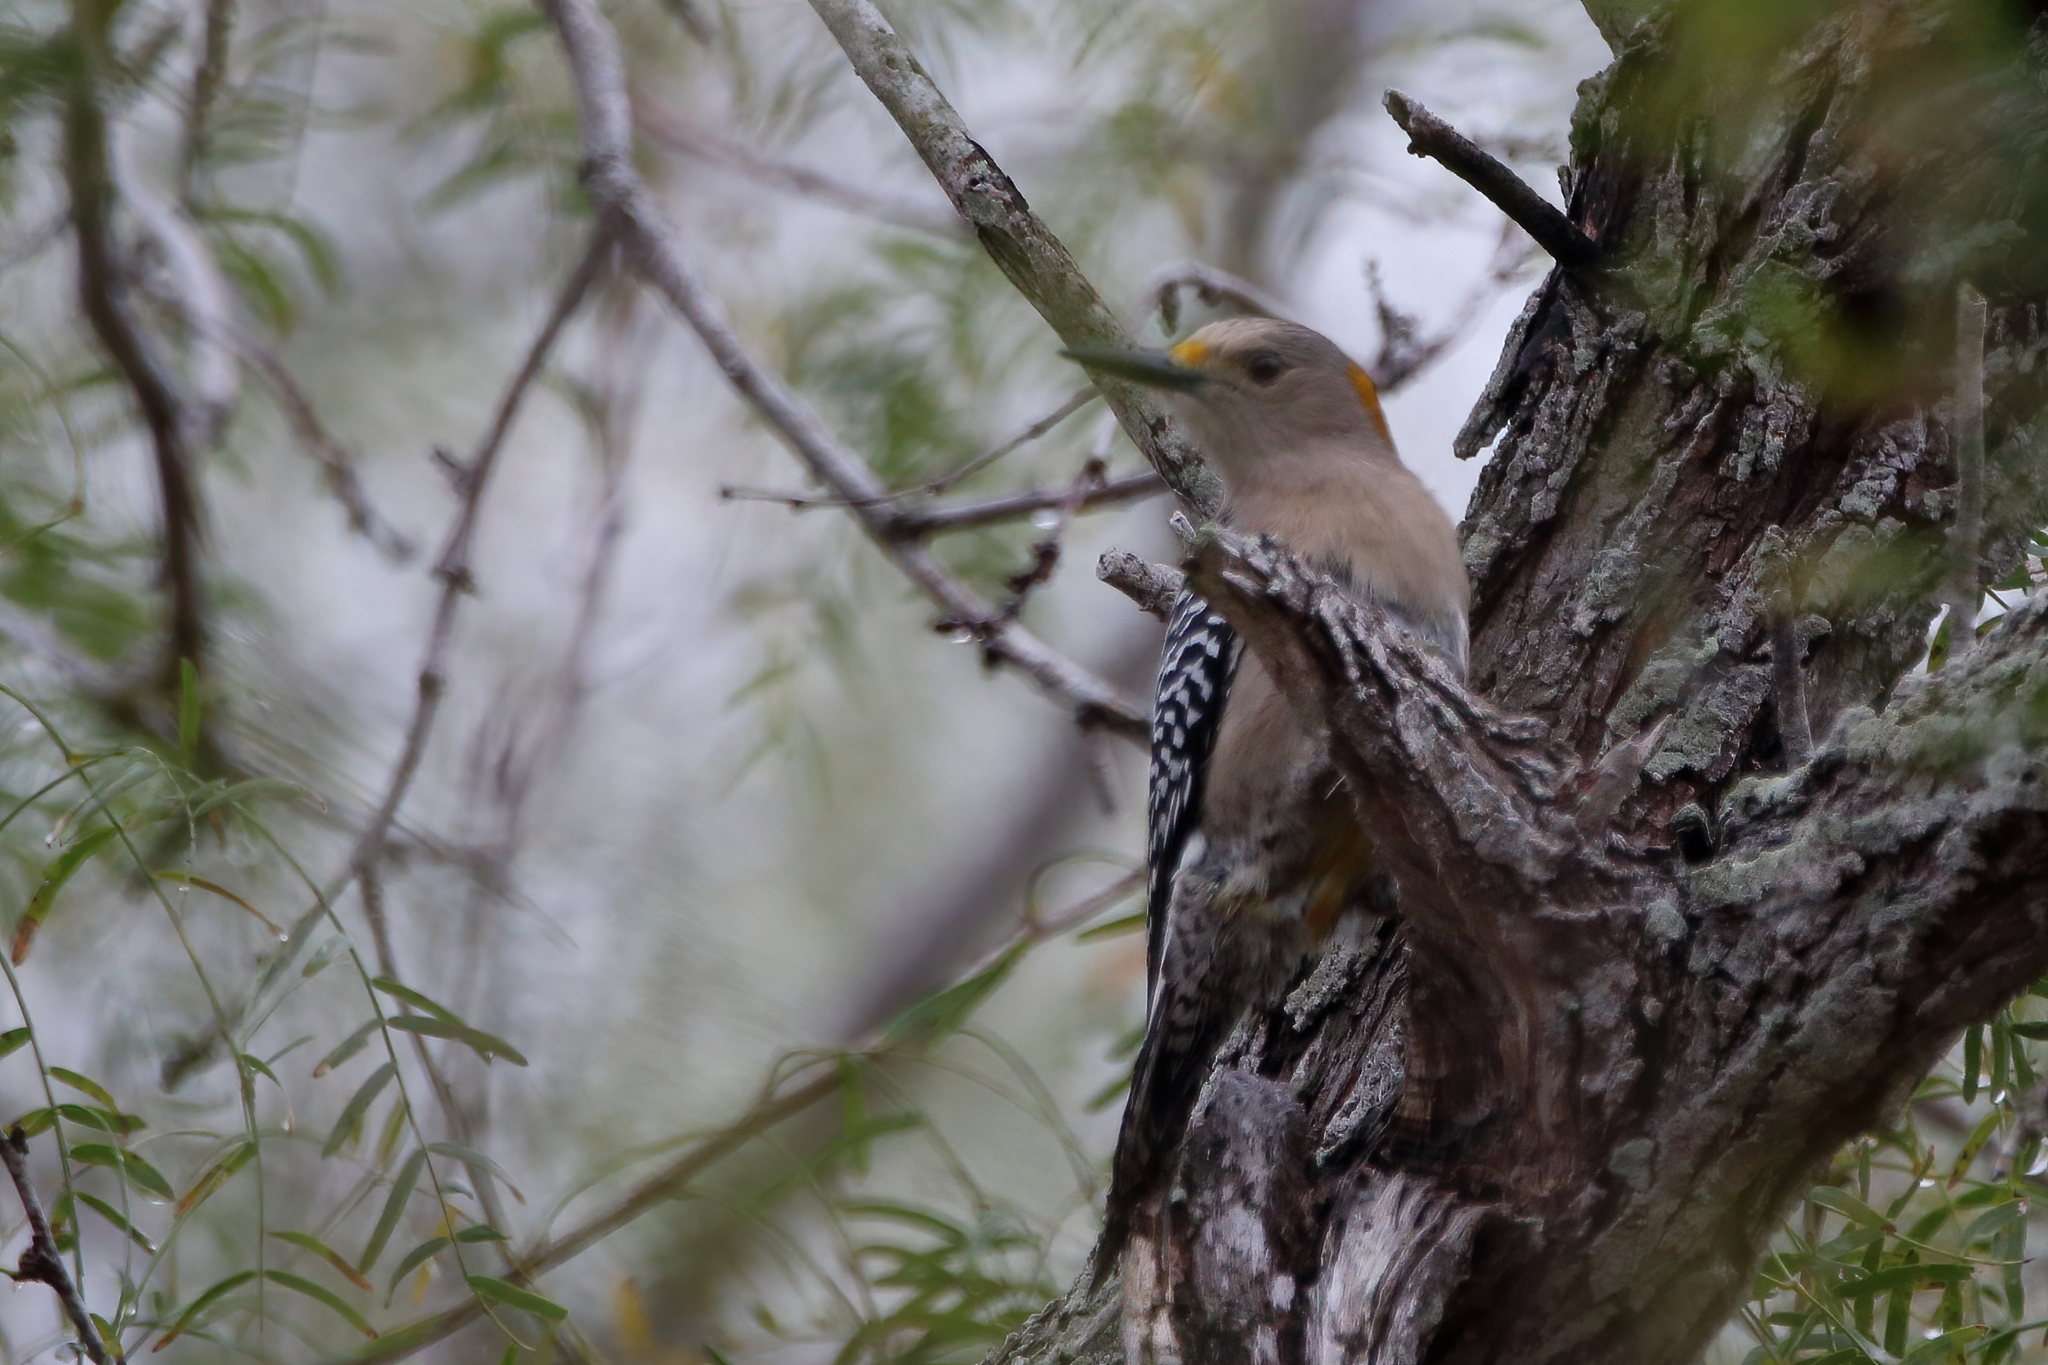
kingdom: Animalia
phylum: Chordata
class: Aves
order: Piciformes
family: Picidae
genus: Melanerpes
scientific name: Melanerpes aurifrons
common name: Golden-fronted woodpecker
